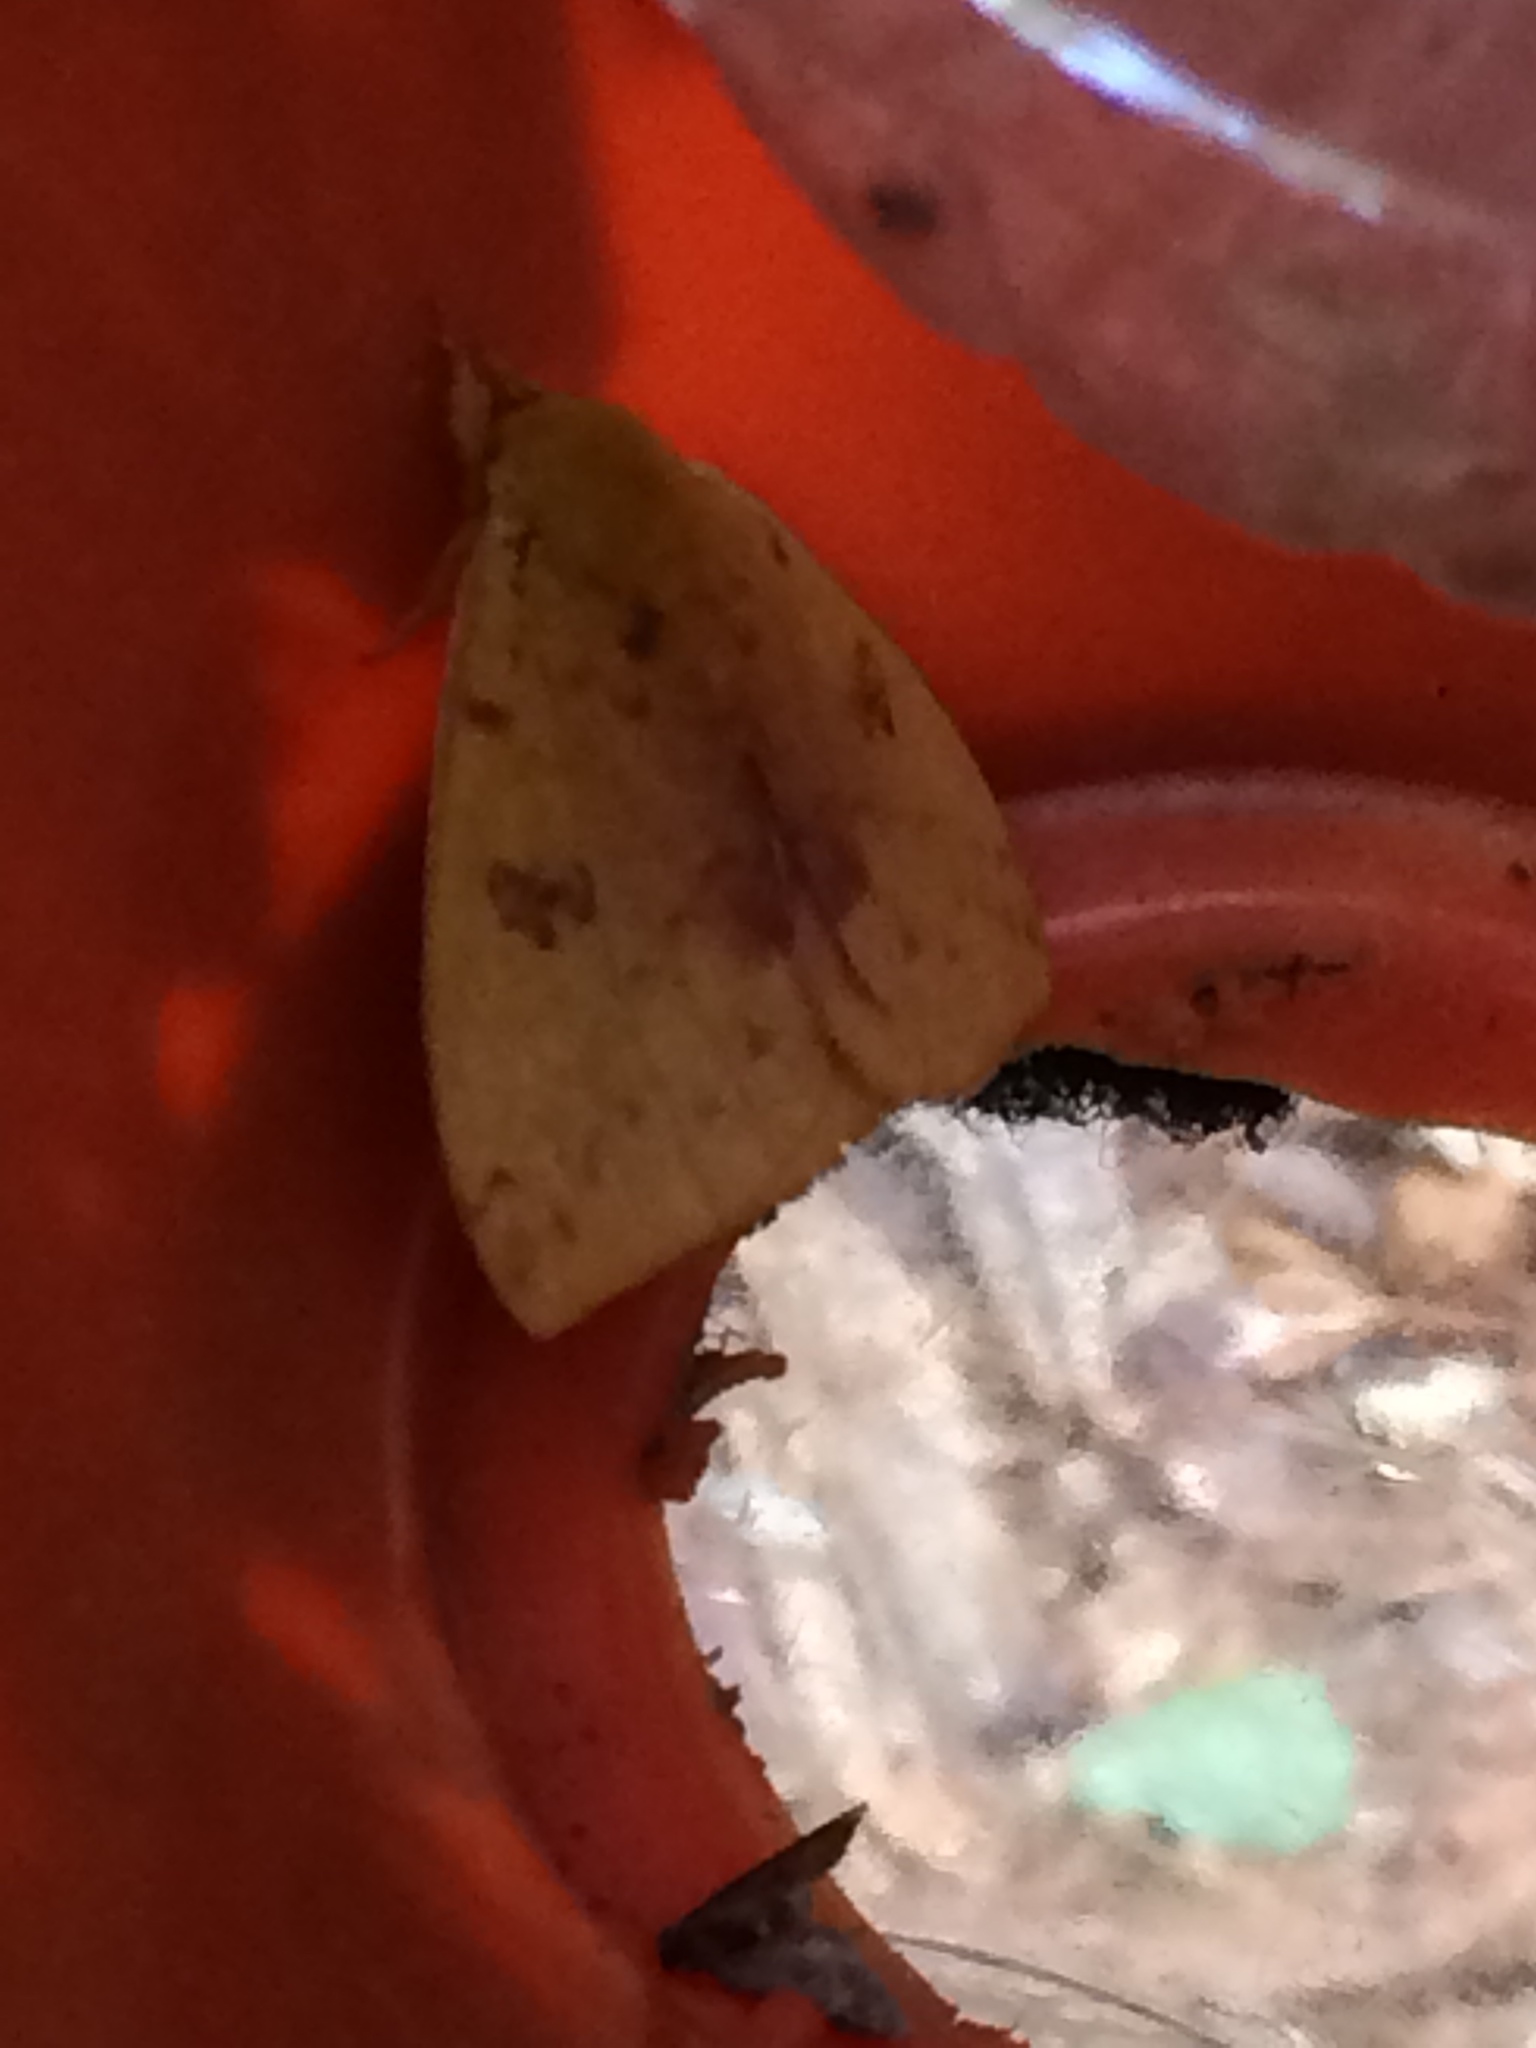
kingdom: Animalia
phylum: Arthropoda
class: Insecta
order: Lepidoptera
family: Saturniidae
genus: Automeris
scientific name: Automeris io
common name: Io moth
